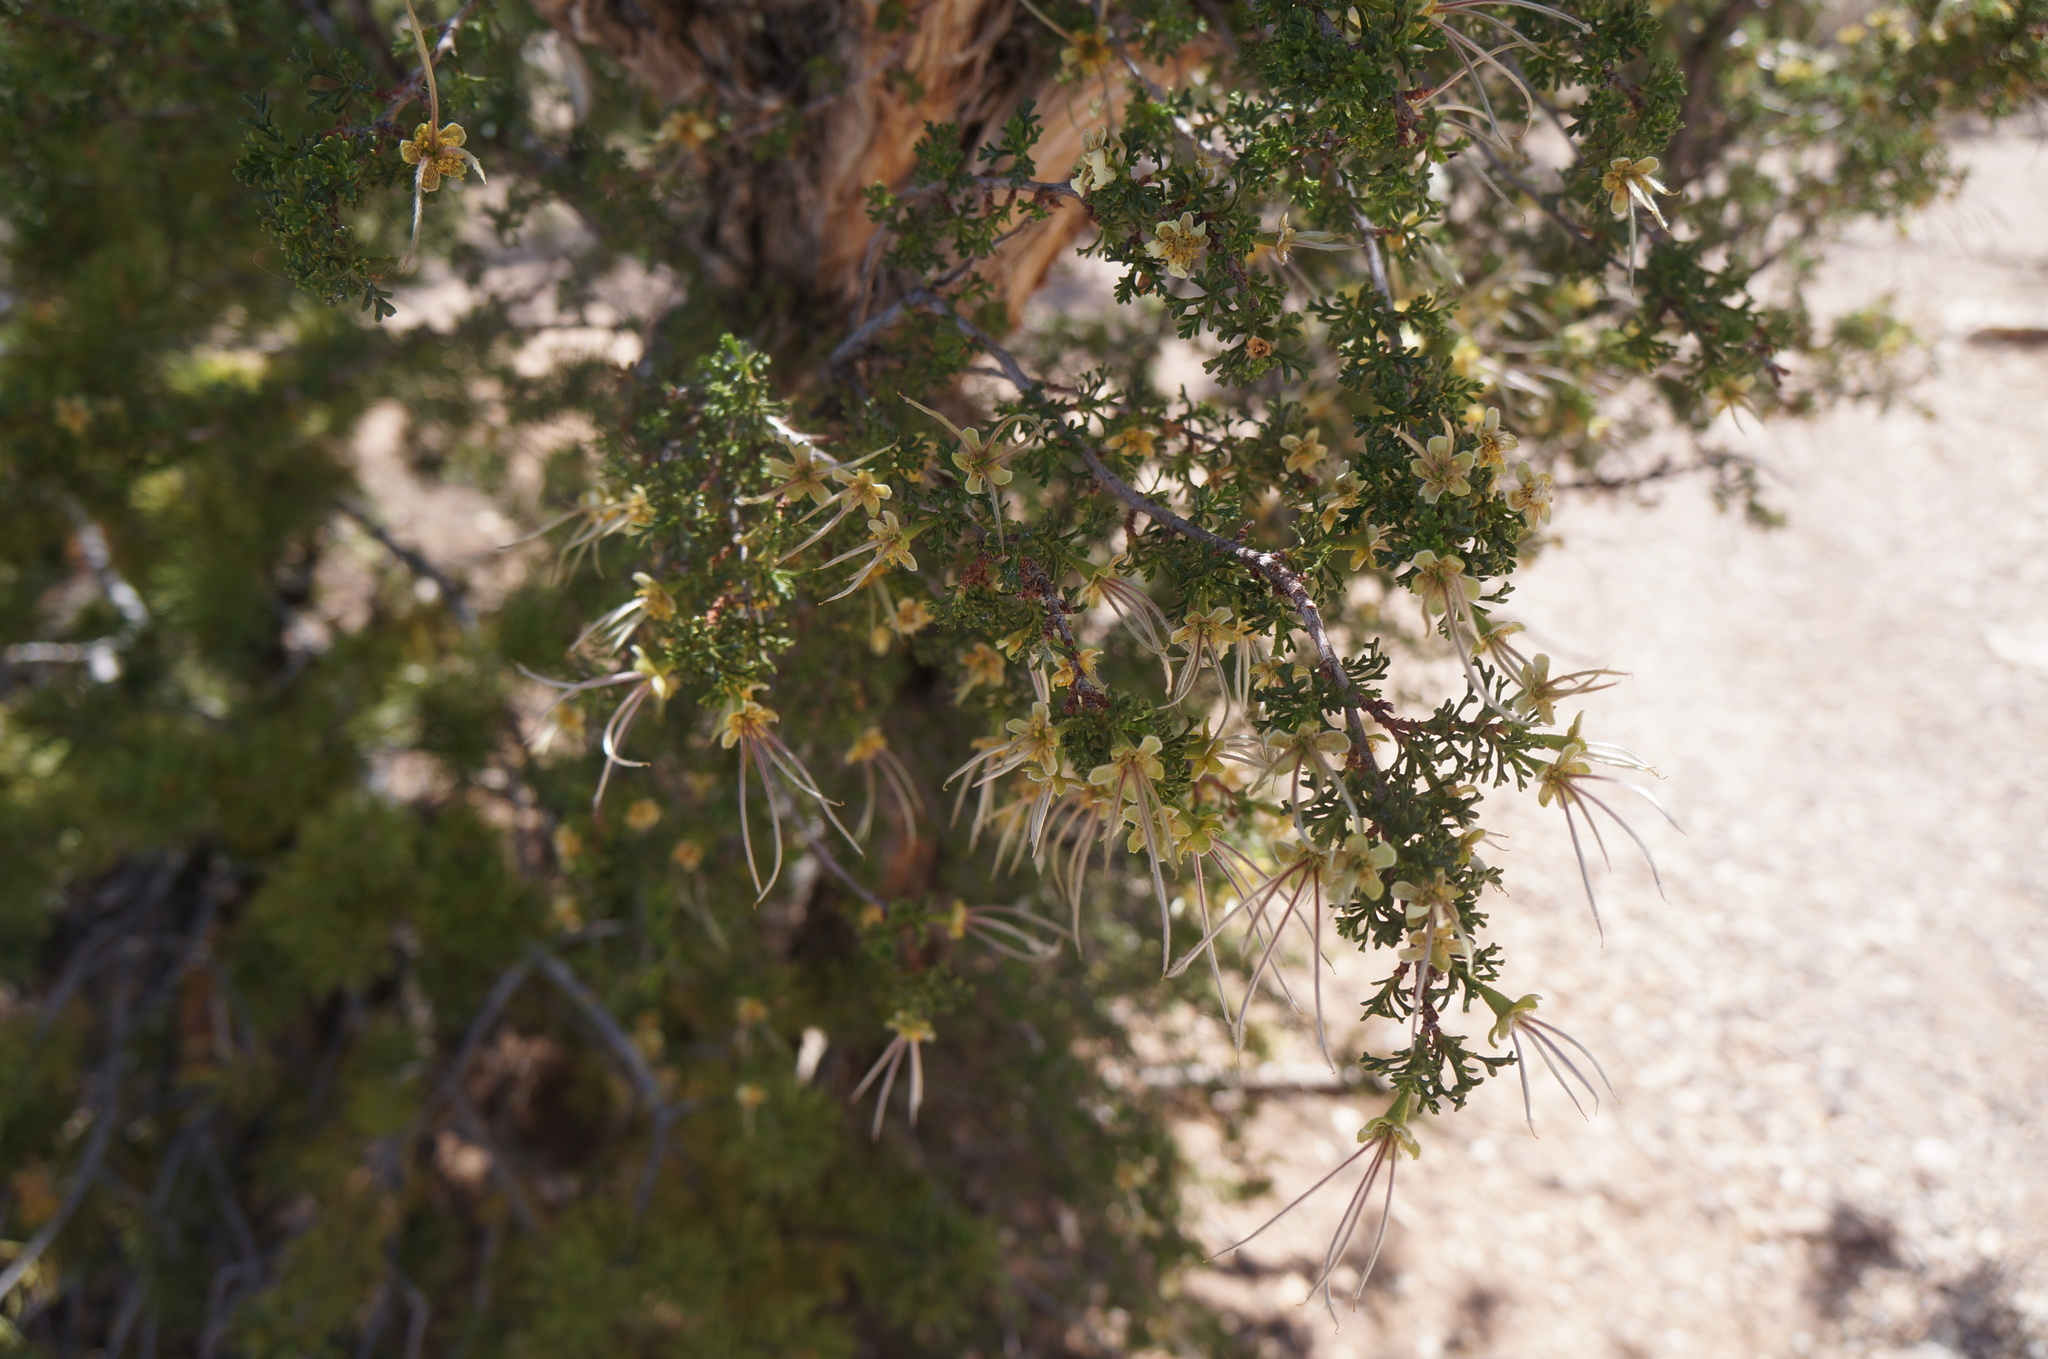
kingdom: Plantae
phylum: Tracheophyta
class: Magnoliopsida
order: Rosales
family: Rosaceae
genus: Purshia
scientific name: Purshia stansburiana
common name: Stansbury's cliffrose
